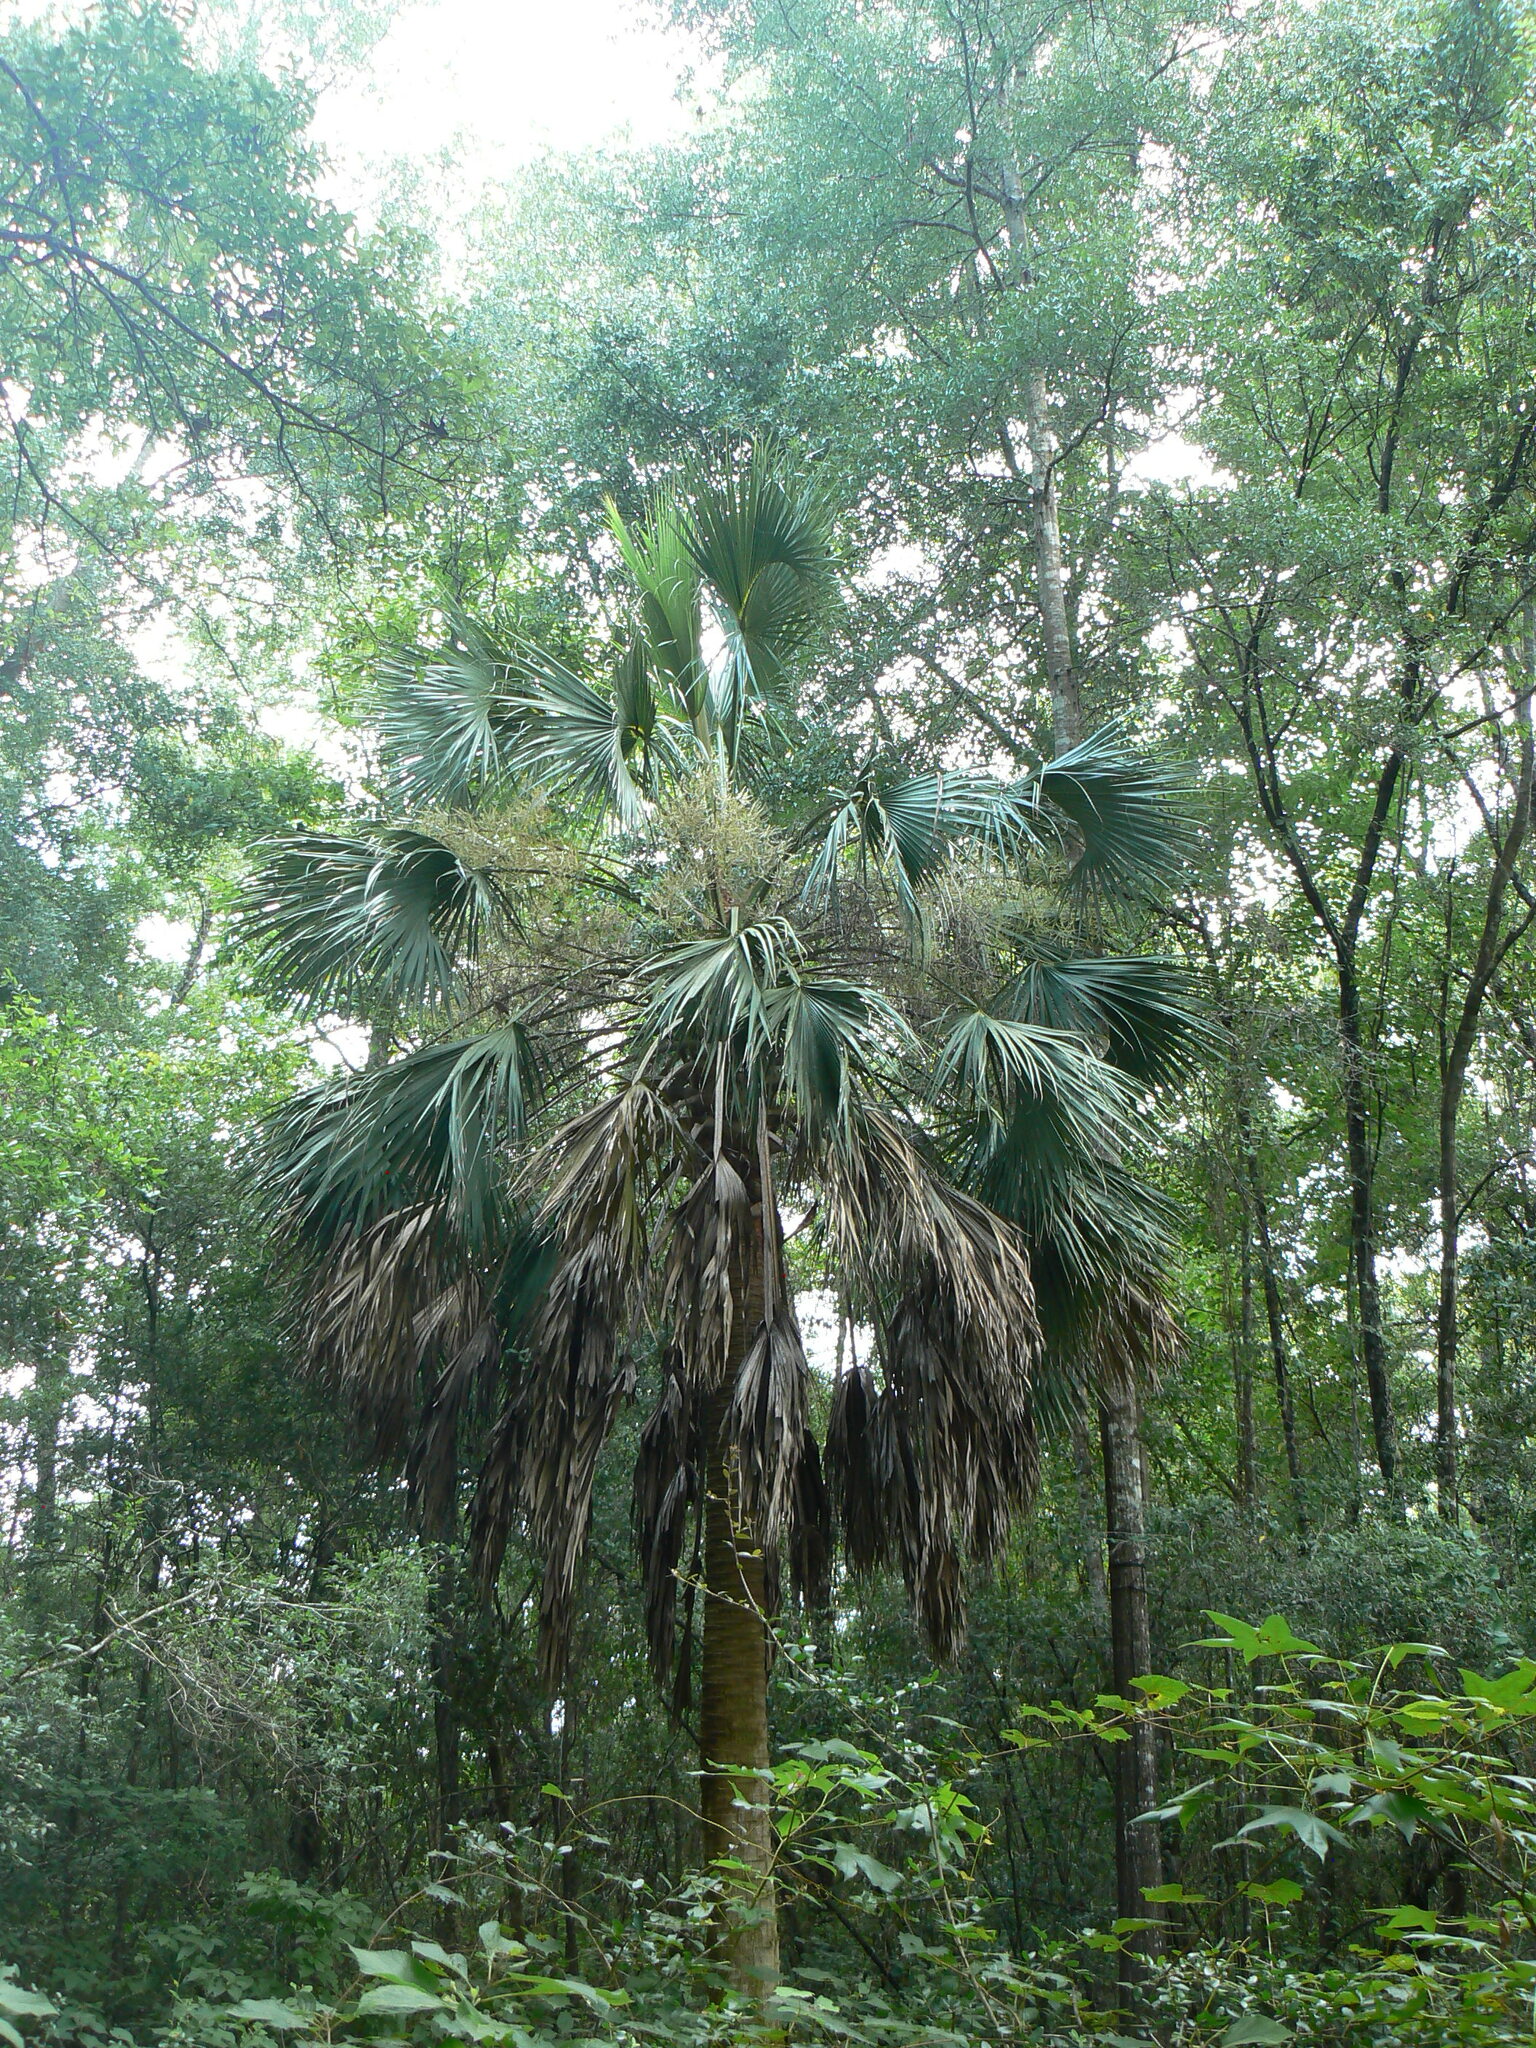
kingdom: Plantae
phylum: Tracheophyta
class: Liliopsida
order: Arecales
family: Arecaceae
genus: Sabal
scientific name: Sabal palmetto
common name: Blue palmetto
